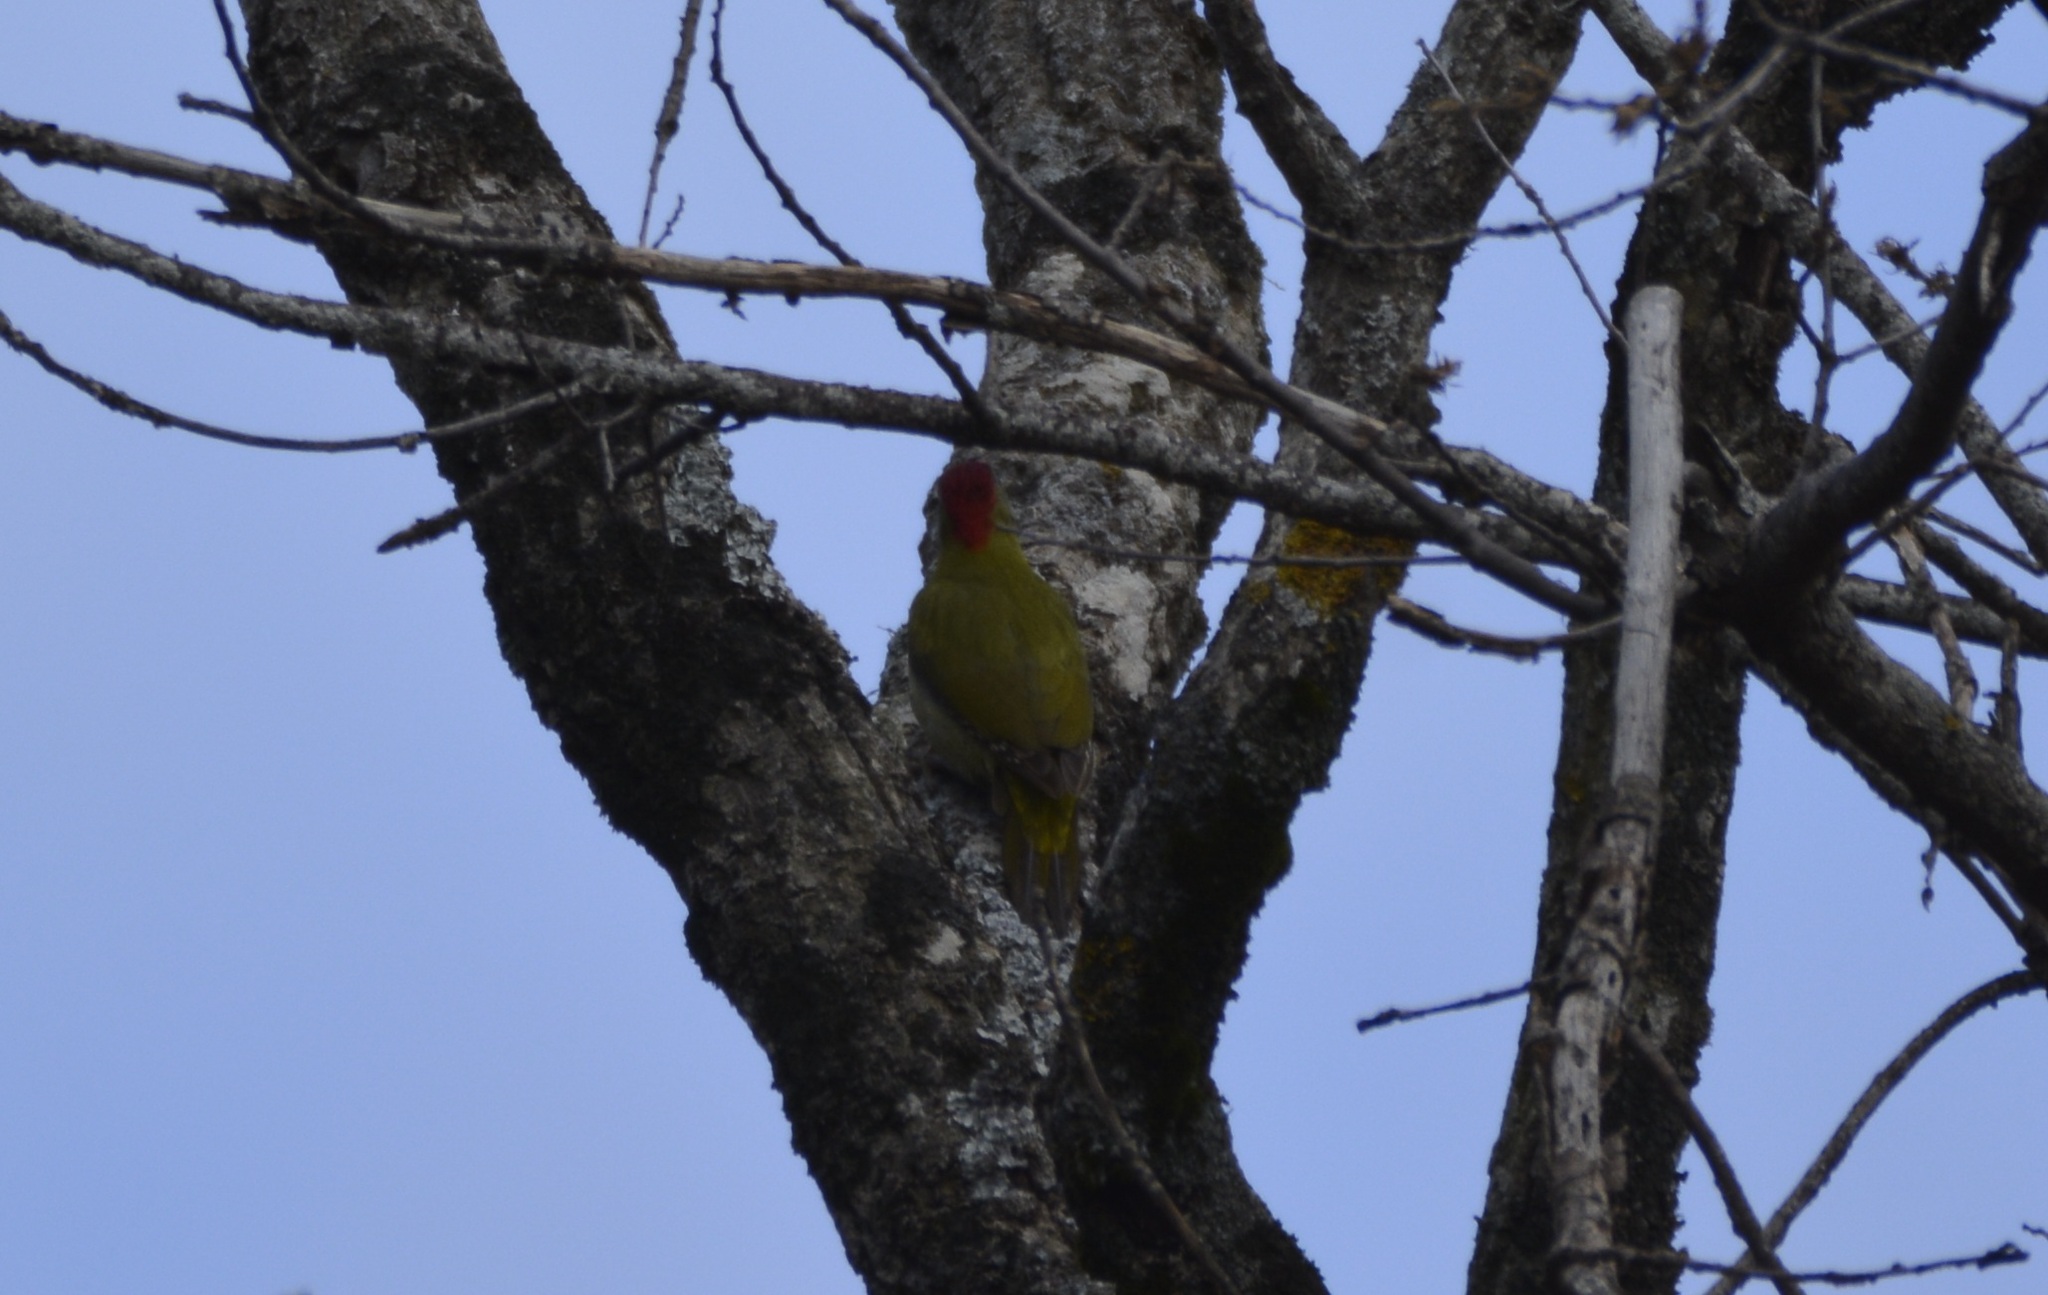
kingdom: Animalia
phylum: Chordata
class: Aves
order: Piciformes
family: Picidae
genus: Picus
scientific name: Picus vaillantii
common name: Levaillant's woodpecker
